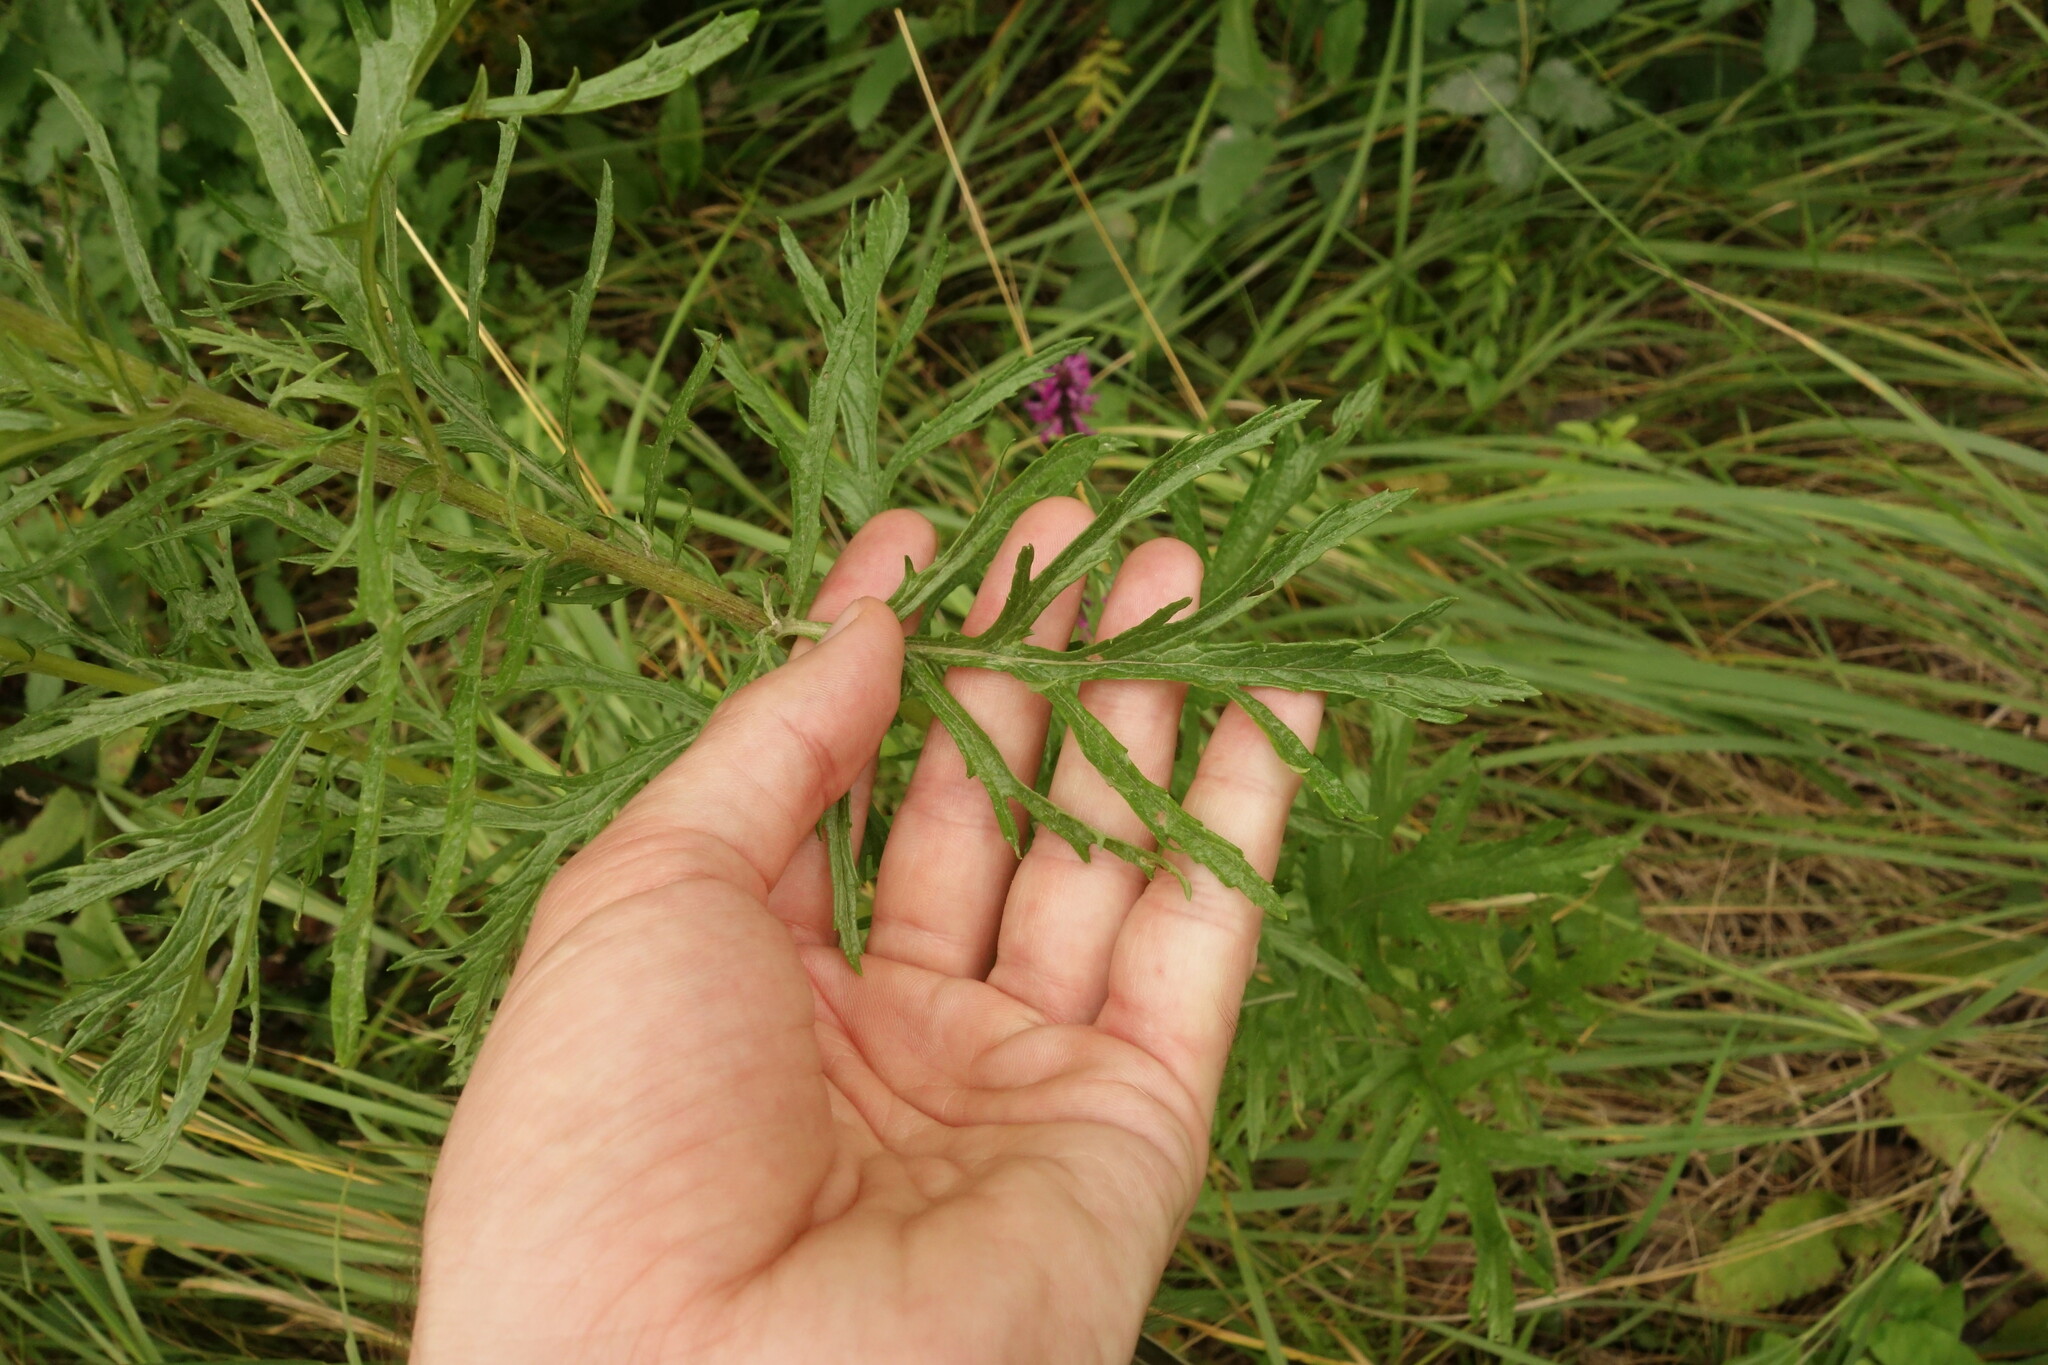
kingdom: Plantae
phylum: Tracheophyta
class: Magnoliopsida
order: Asterales
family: Asteraceae
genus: Jacobaea
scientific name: Jacobaea erucifolia
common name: Hoary ragwort
